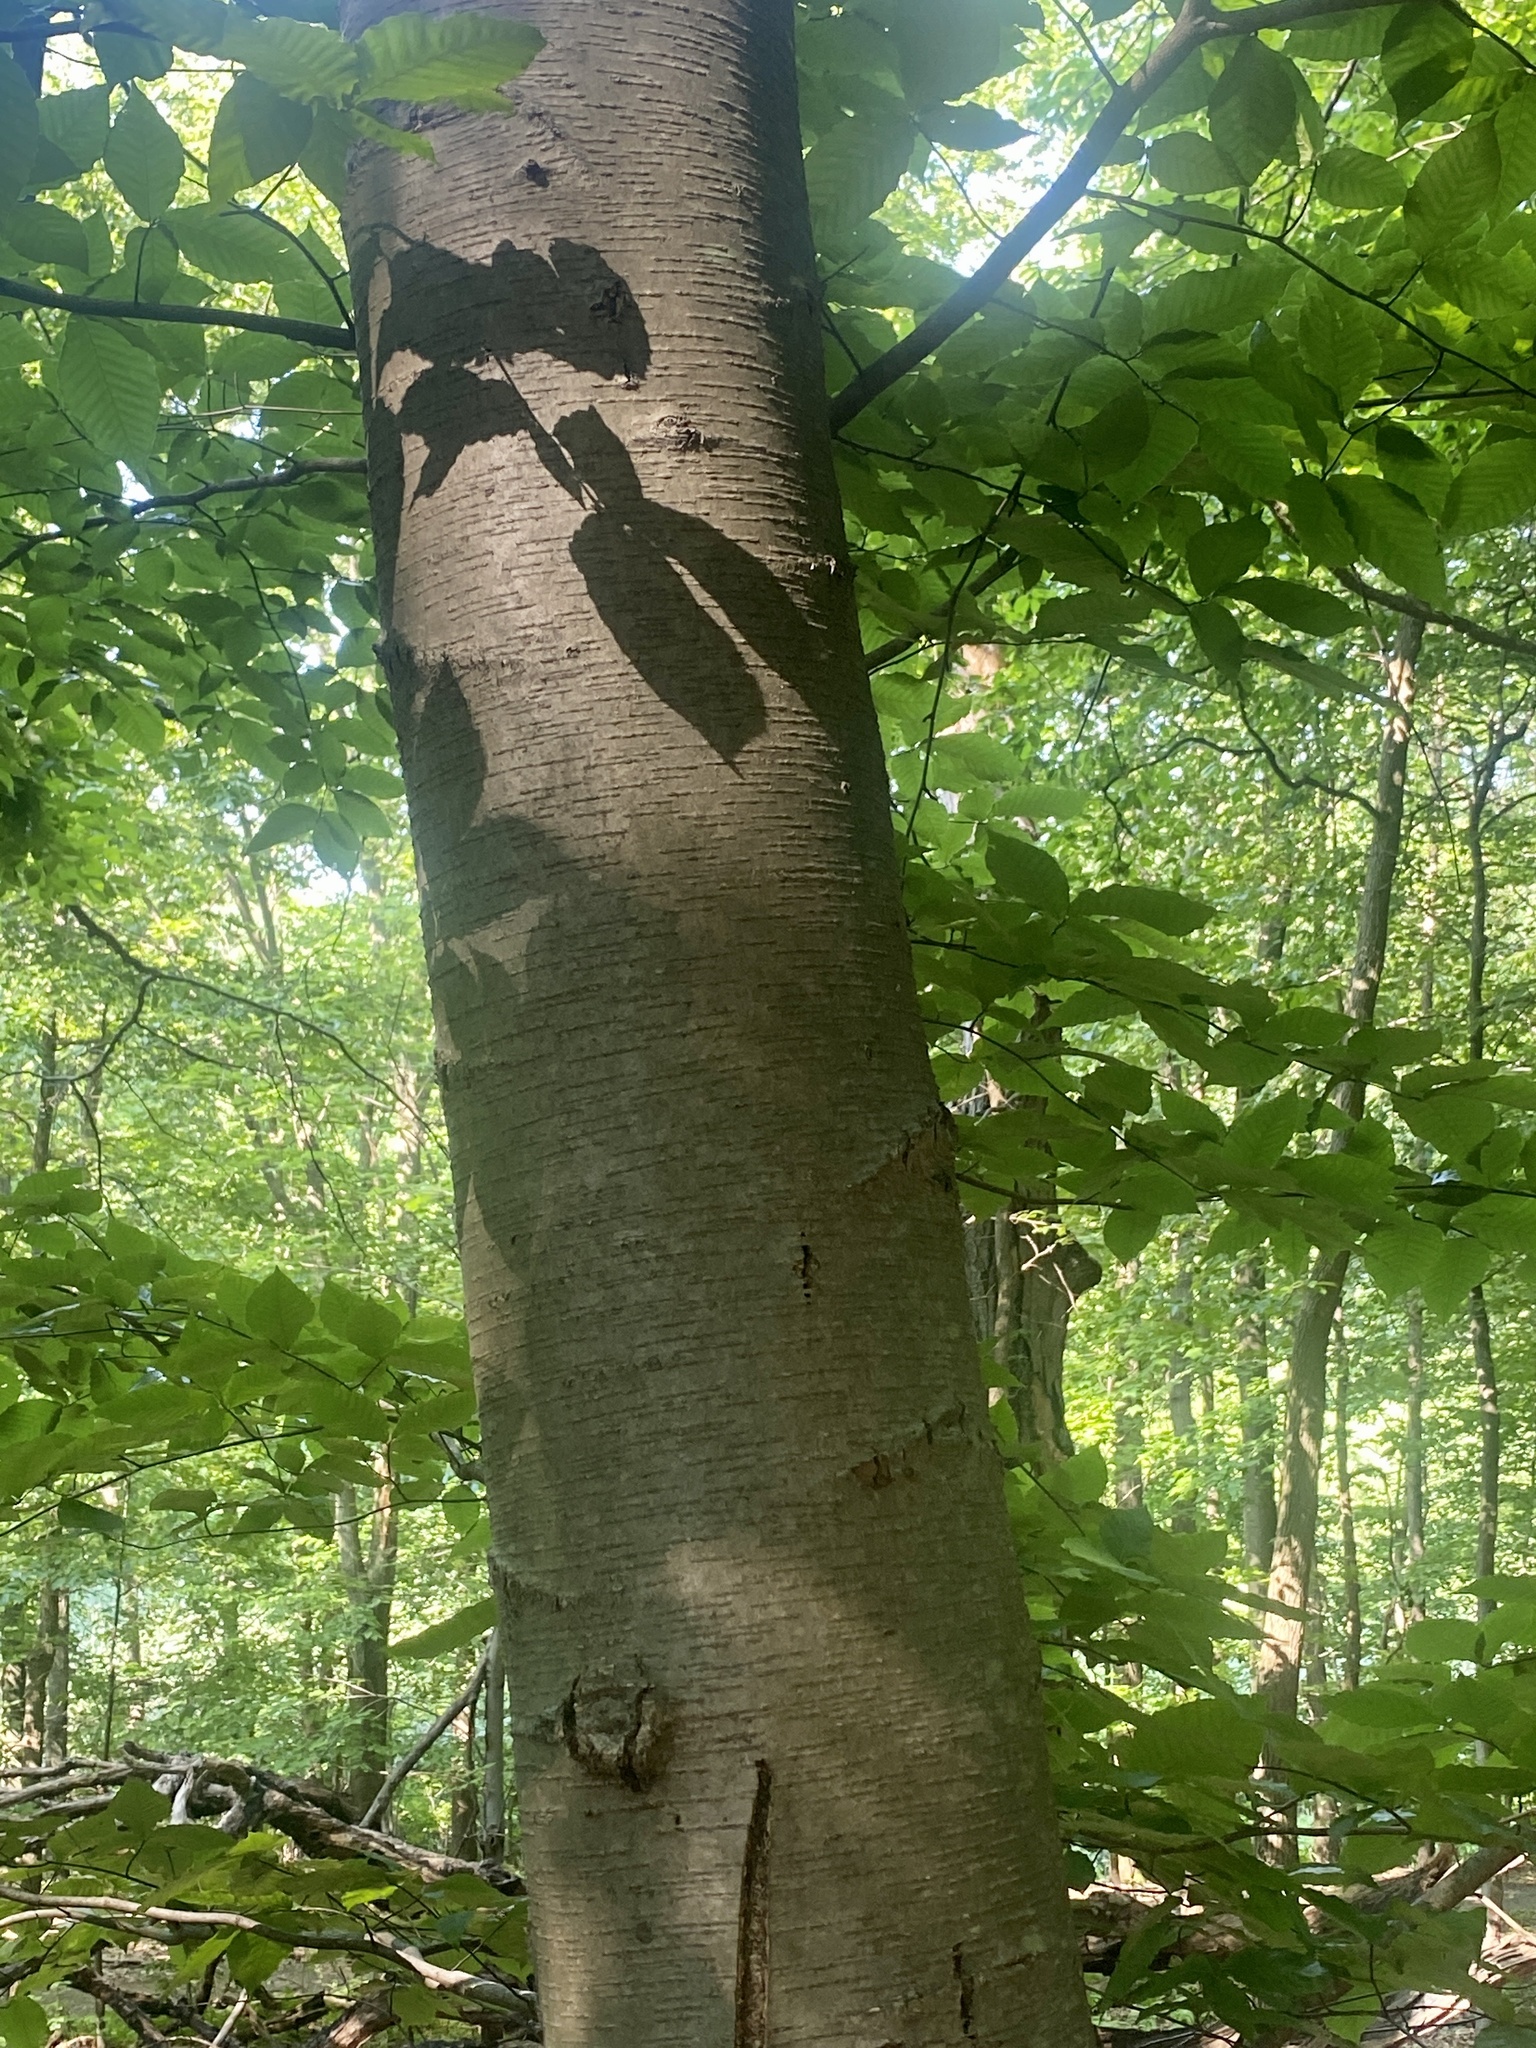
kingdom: Plantae
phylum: Tracheophyta
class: Magnoliopsida
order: Fagales
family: Betulaceae
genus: Betula
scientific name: Betula lenta
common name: Black birch
